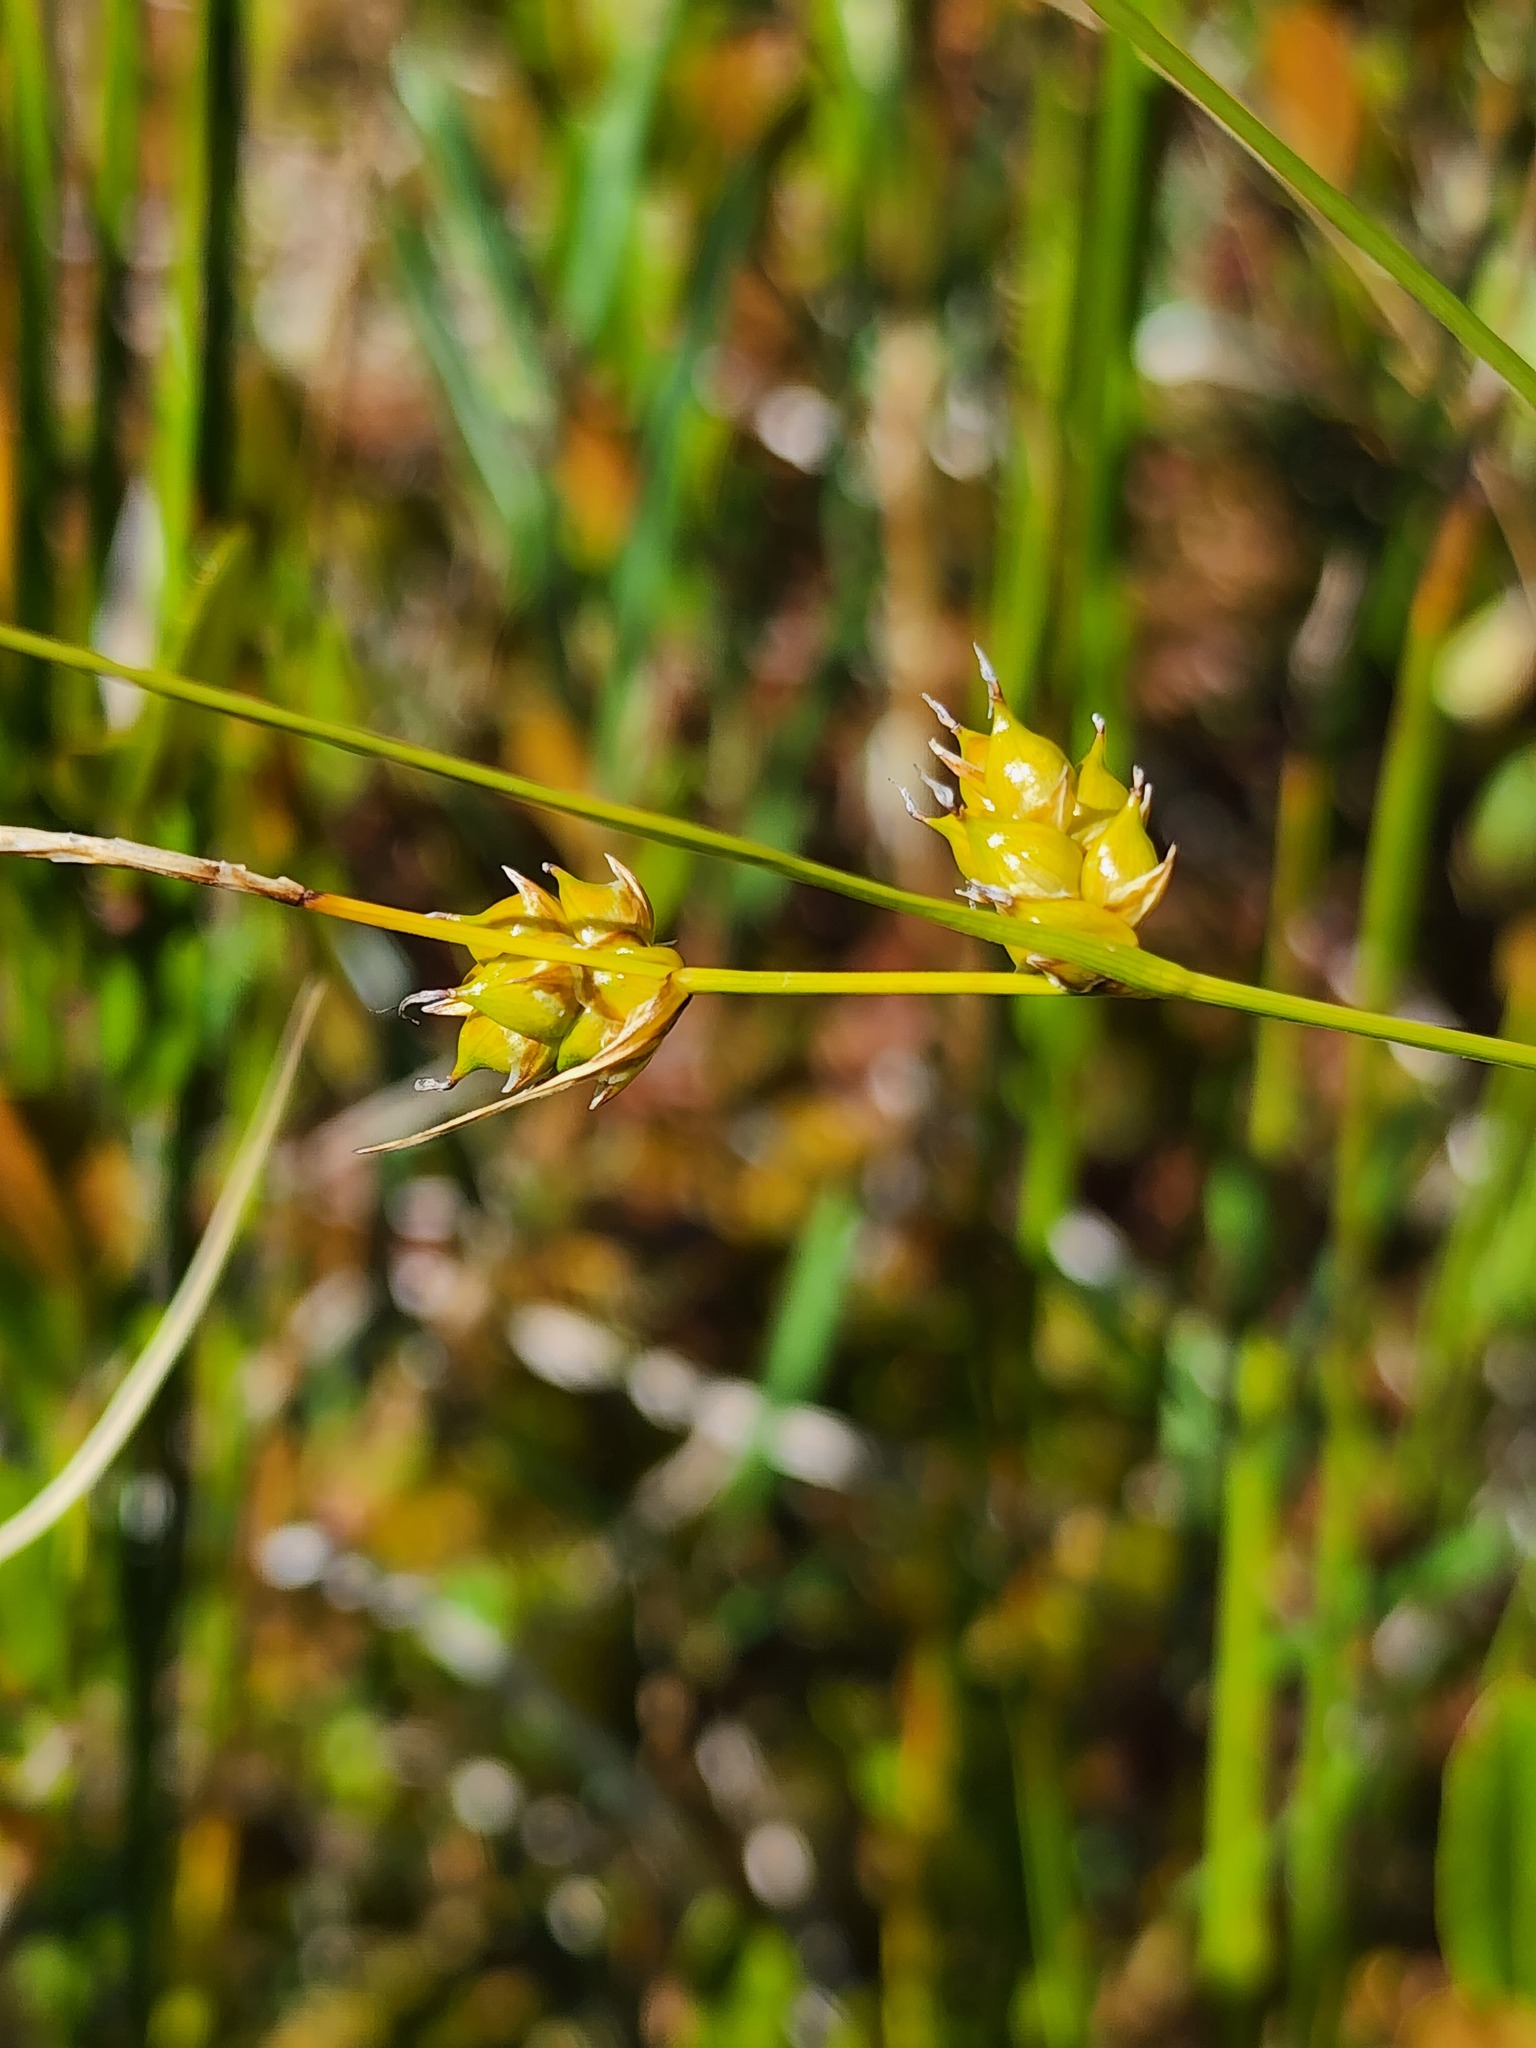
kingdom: Plantae
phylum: Tracheophyta
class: Liliopsida
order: Poales
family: Cyperaceae
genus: Carex
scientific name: Carex oligosperma
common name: Few-seed sedge
